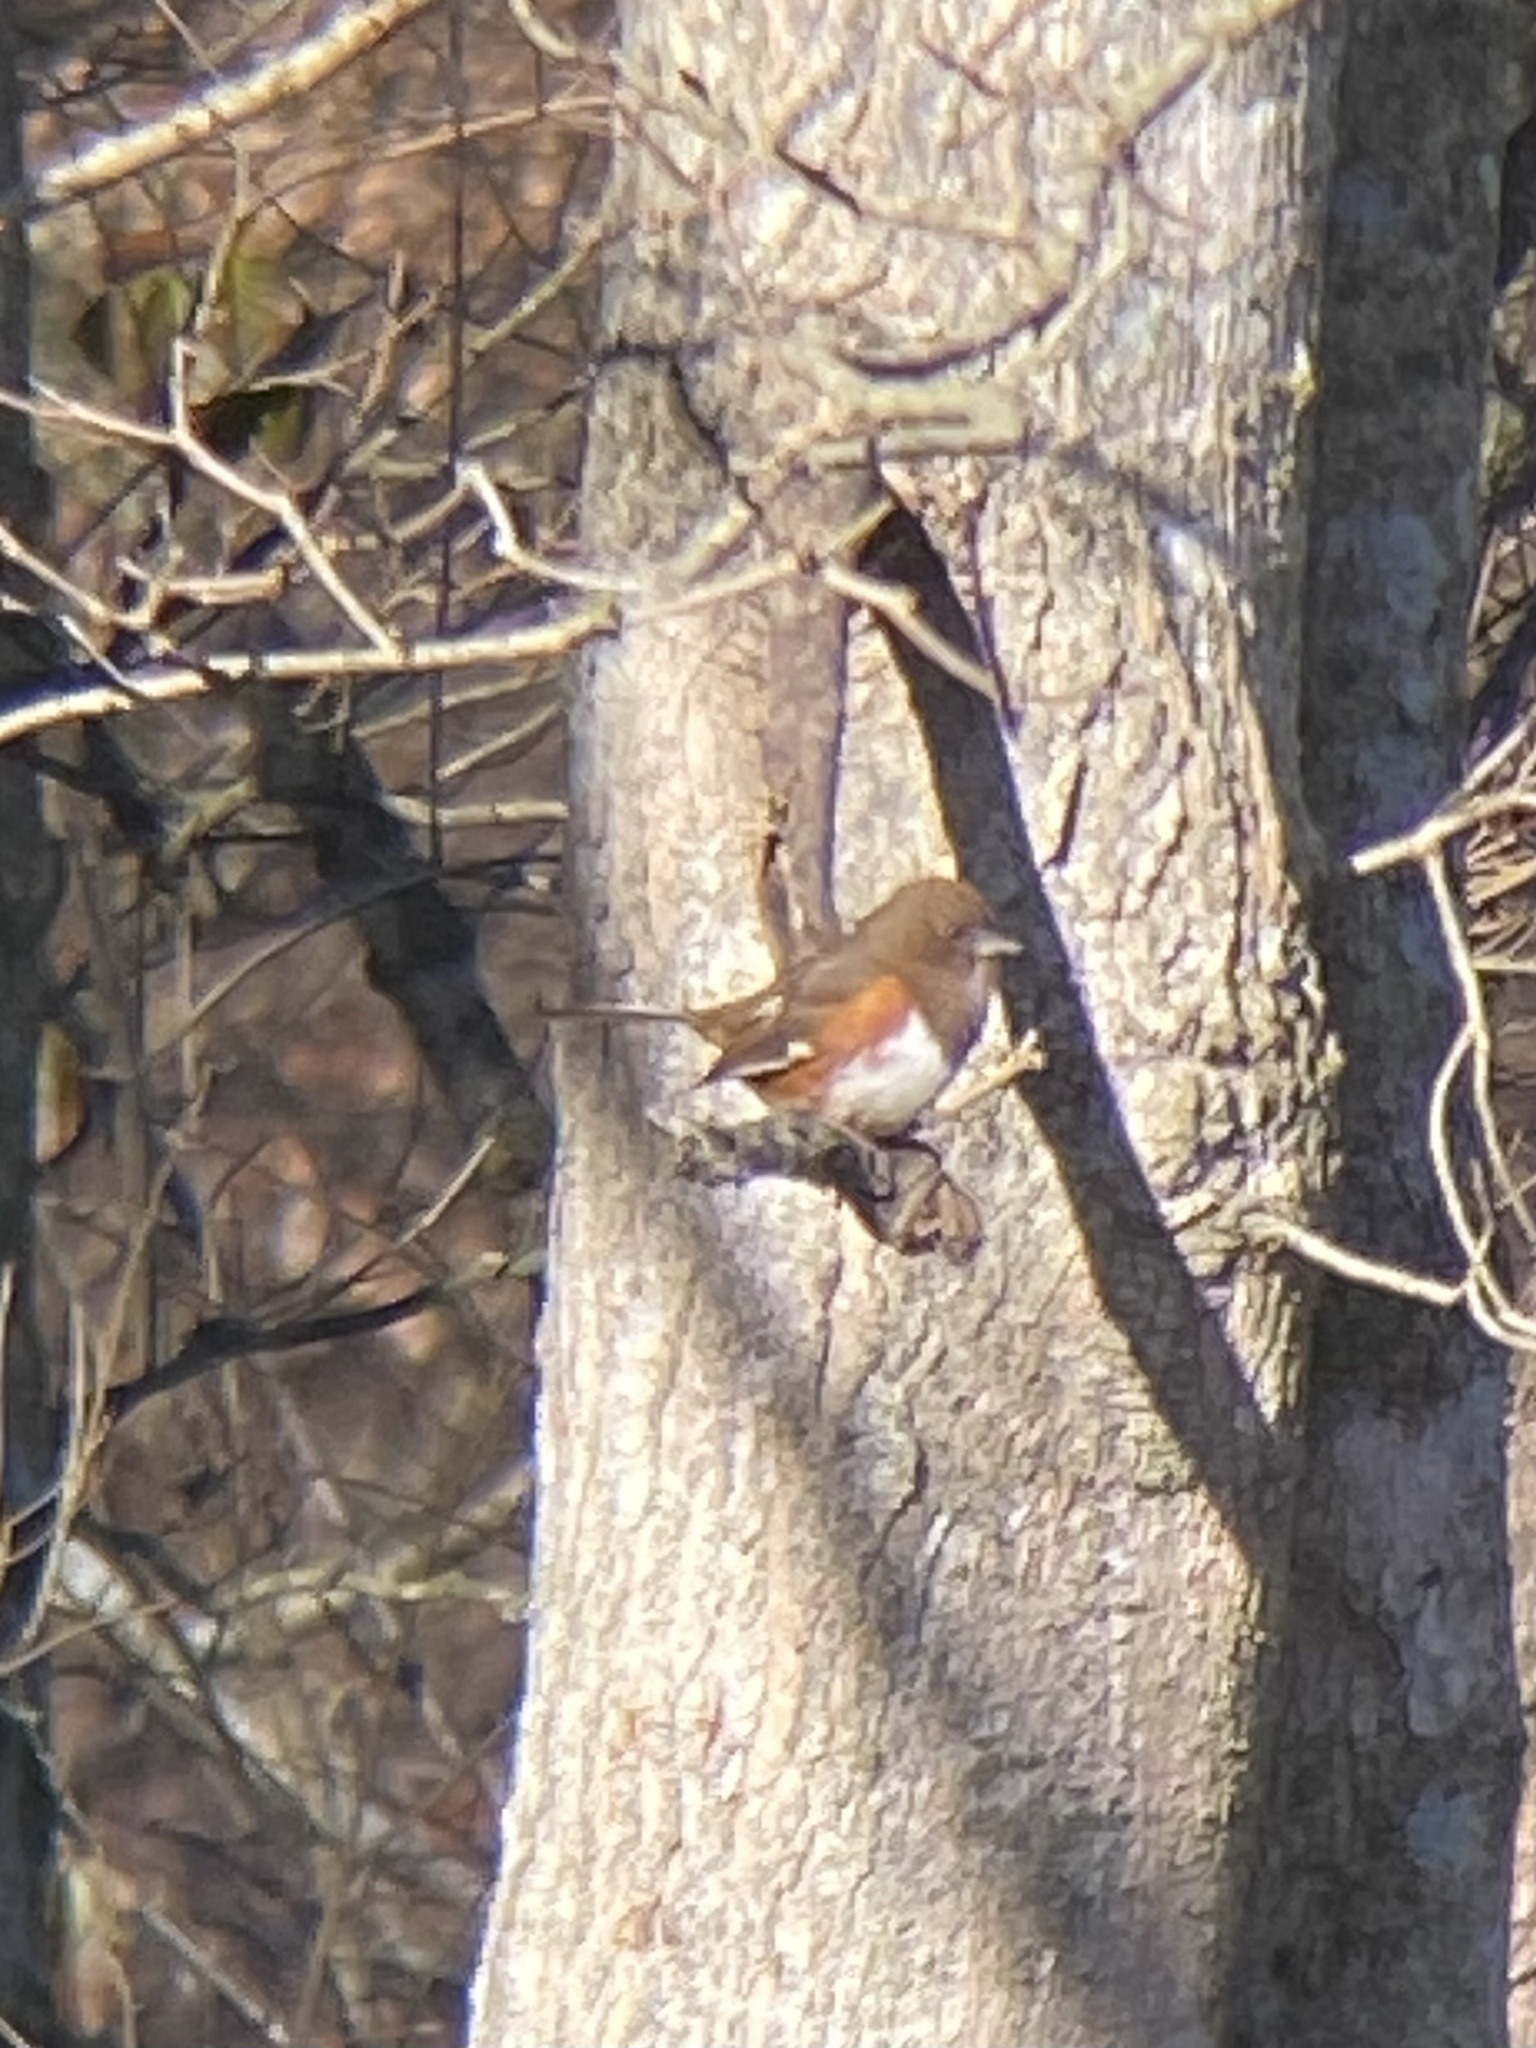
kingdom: Animalia
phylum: Chordata
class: Aves
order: Passeriformes
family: Passerellidae
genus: Pipilo
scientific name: Pipilo erythrophthalmus
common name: Eastern towhee
